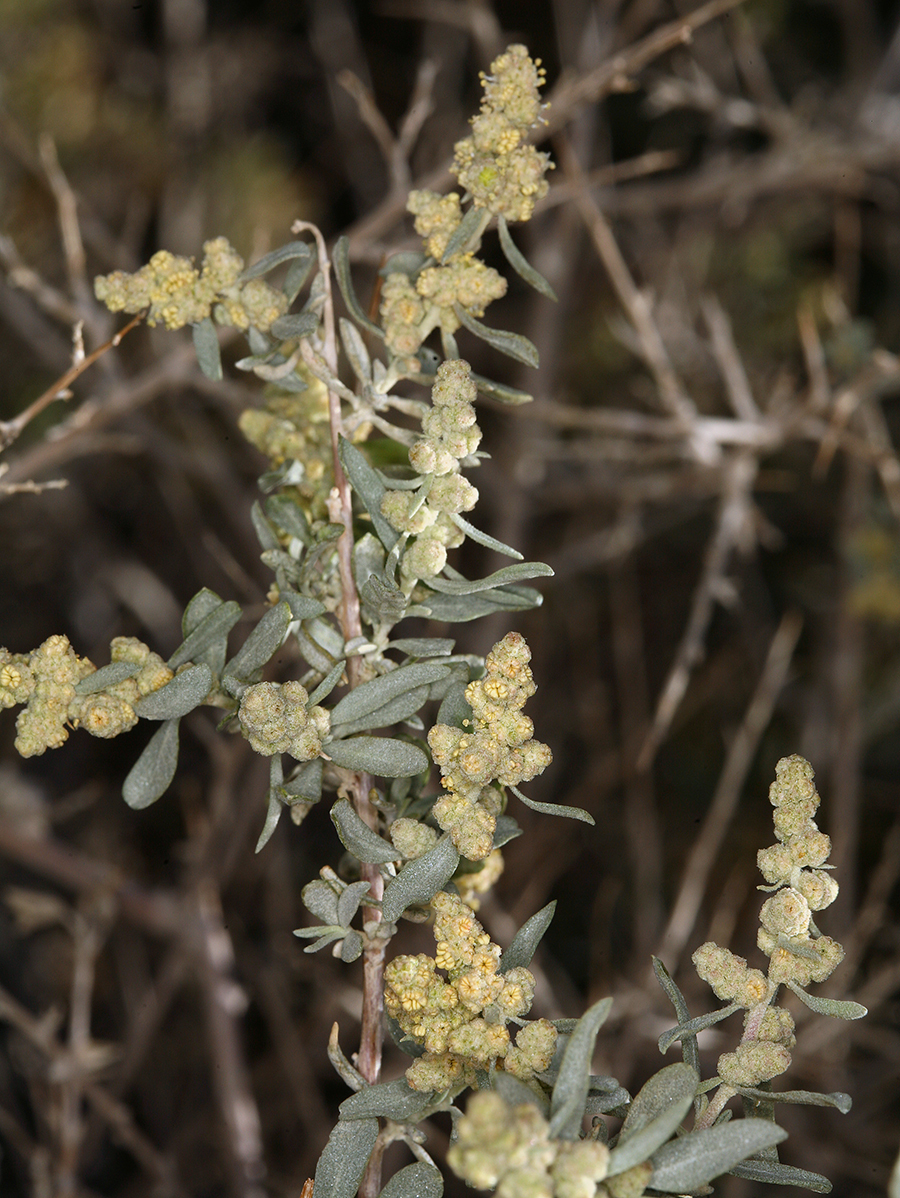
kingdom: Plantae
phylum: Tracheophyta
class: Magnoliopsida
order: Caryophyllales
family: Amaranthaceae
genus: Atriplex
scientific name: Atriplex canescens
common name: Four-wing saltbush
